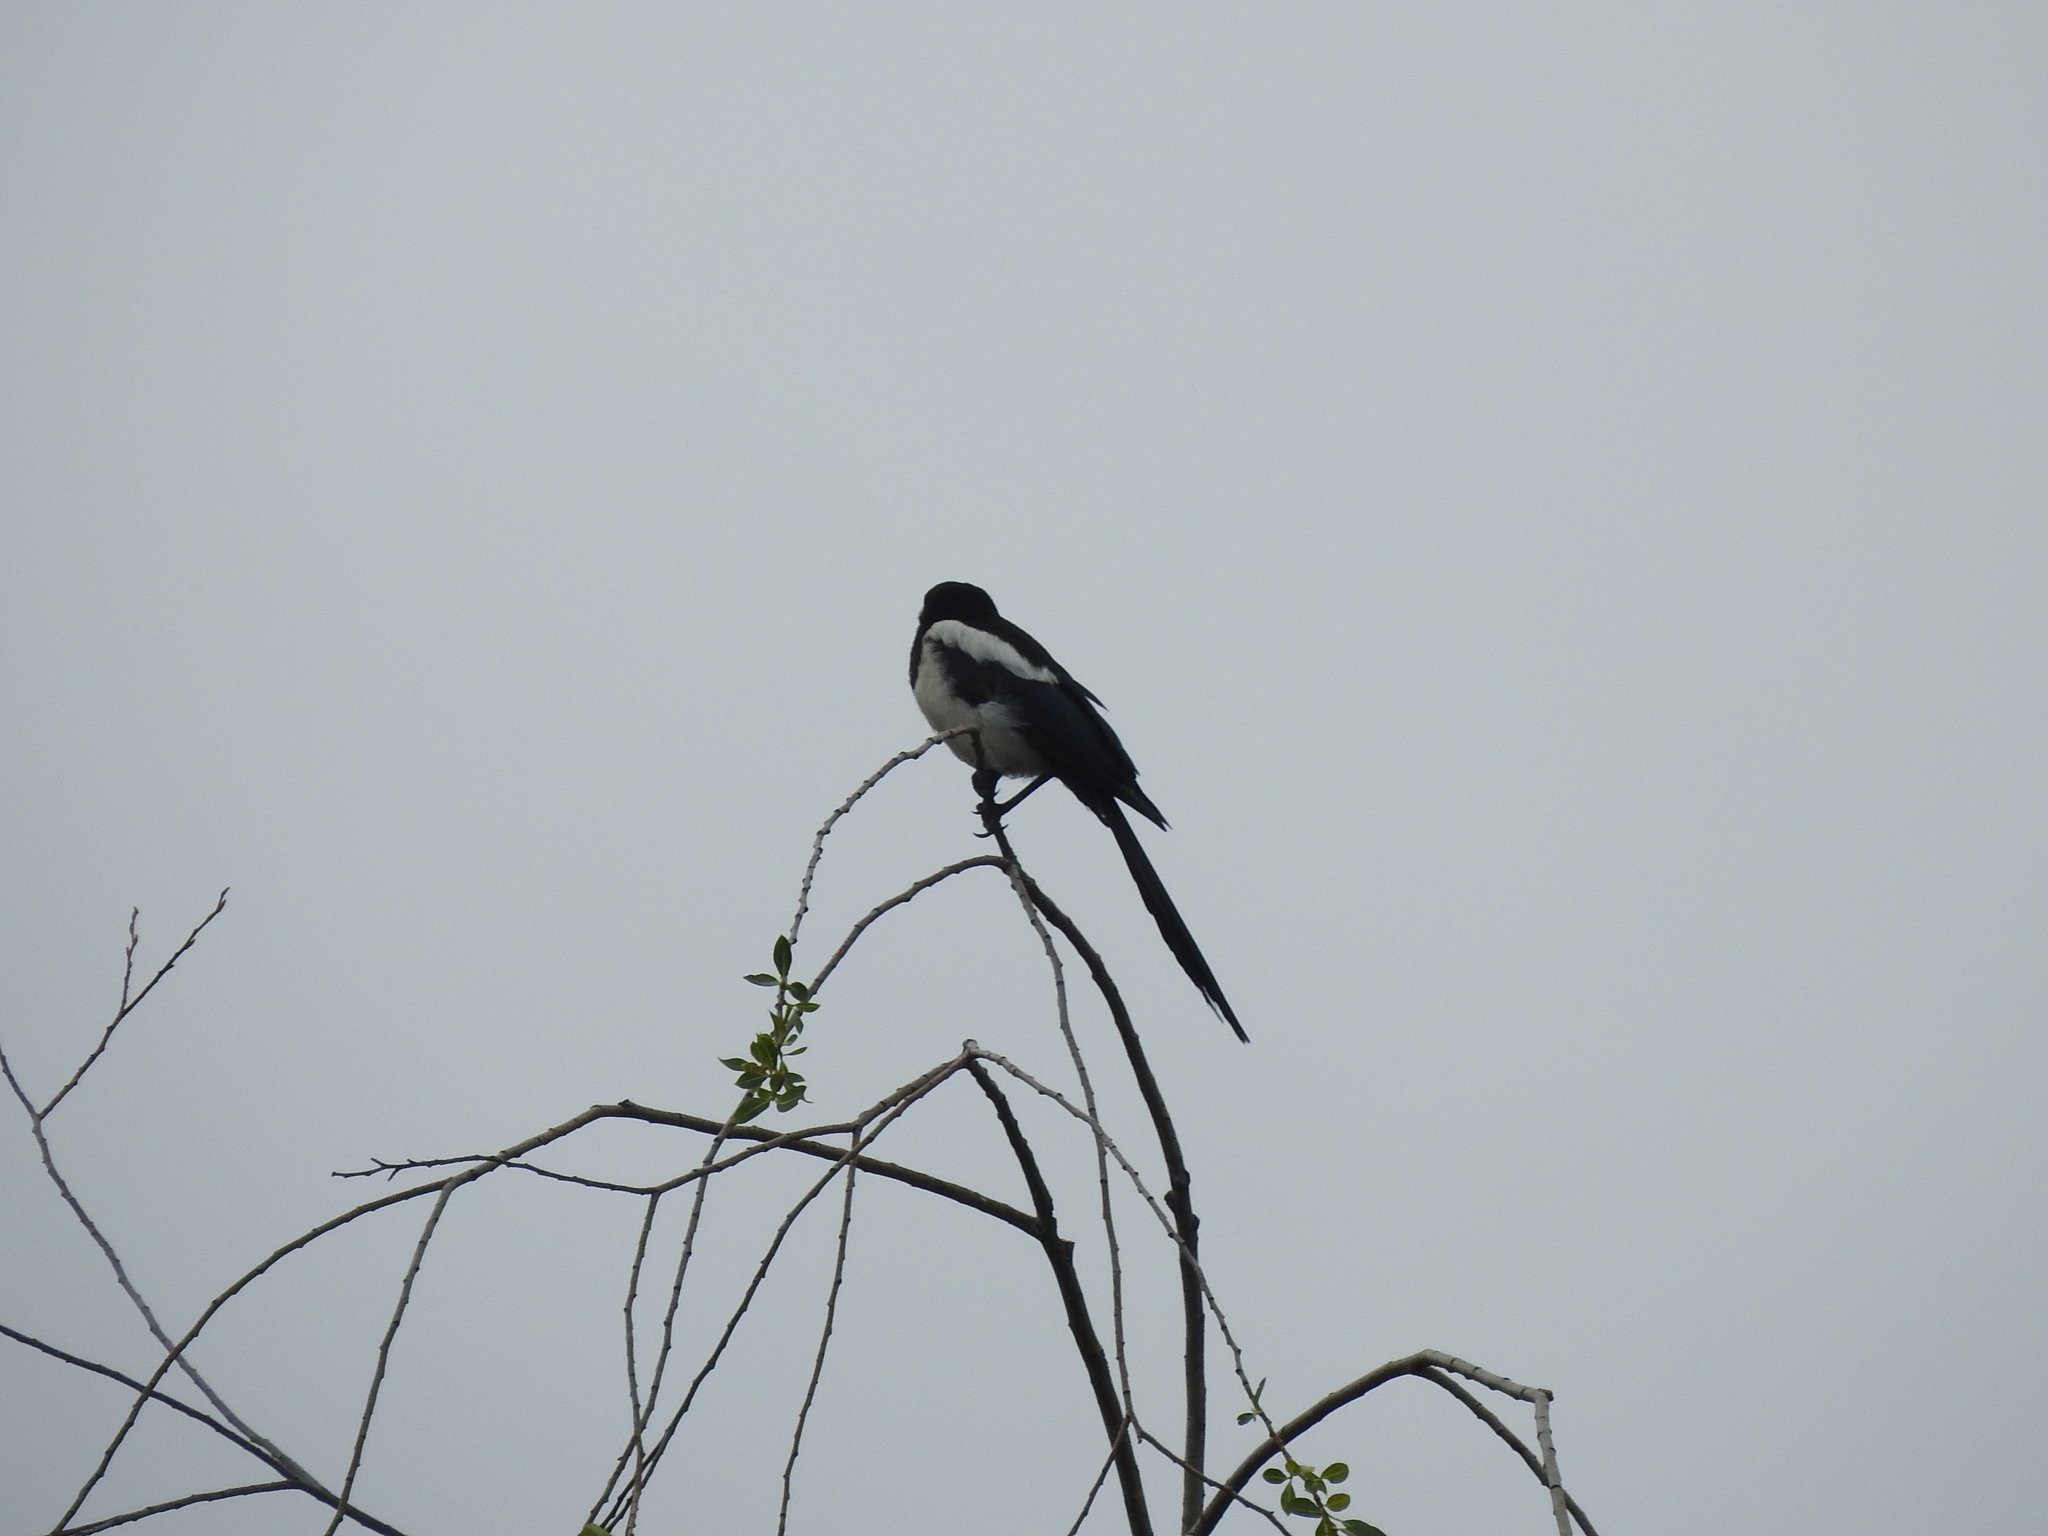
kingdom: Animalia
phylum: Chordata
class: Aves
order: Passeriformes
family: Corvidae
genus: Pica
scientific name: Pica pica
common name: Eurasian magpie
